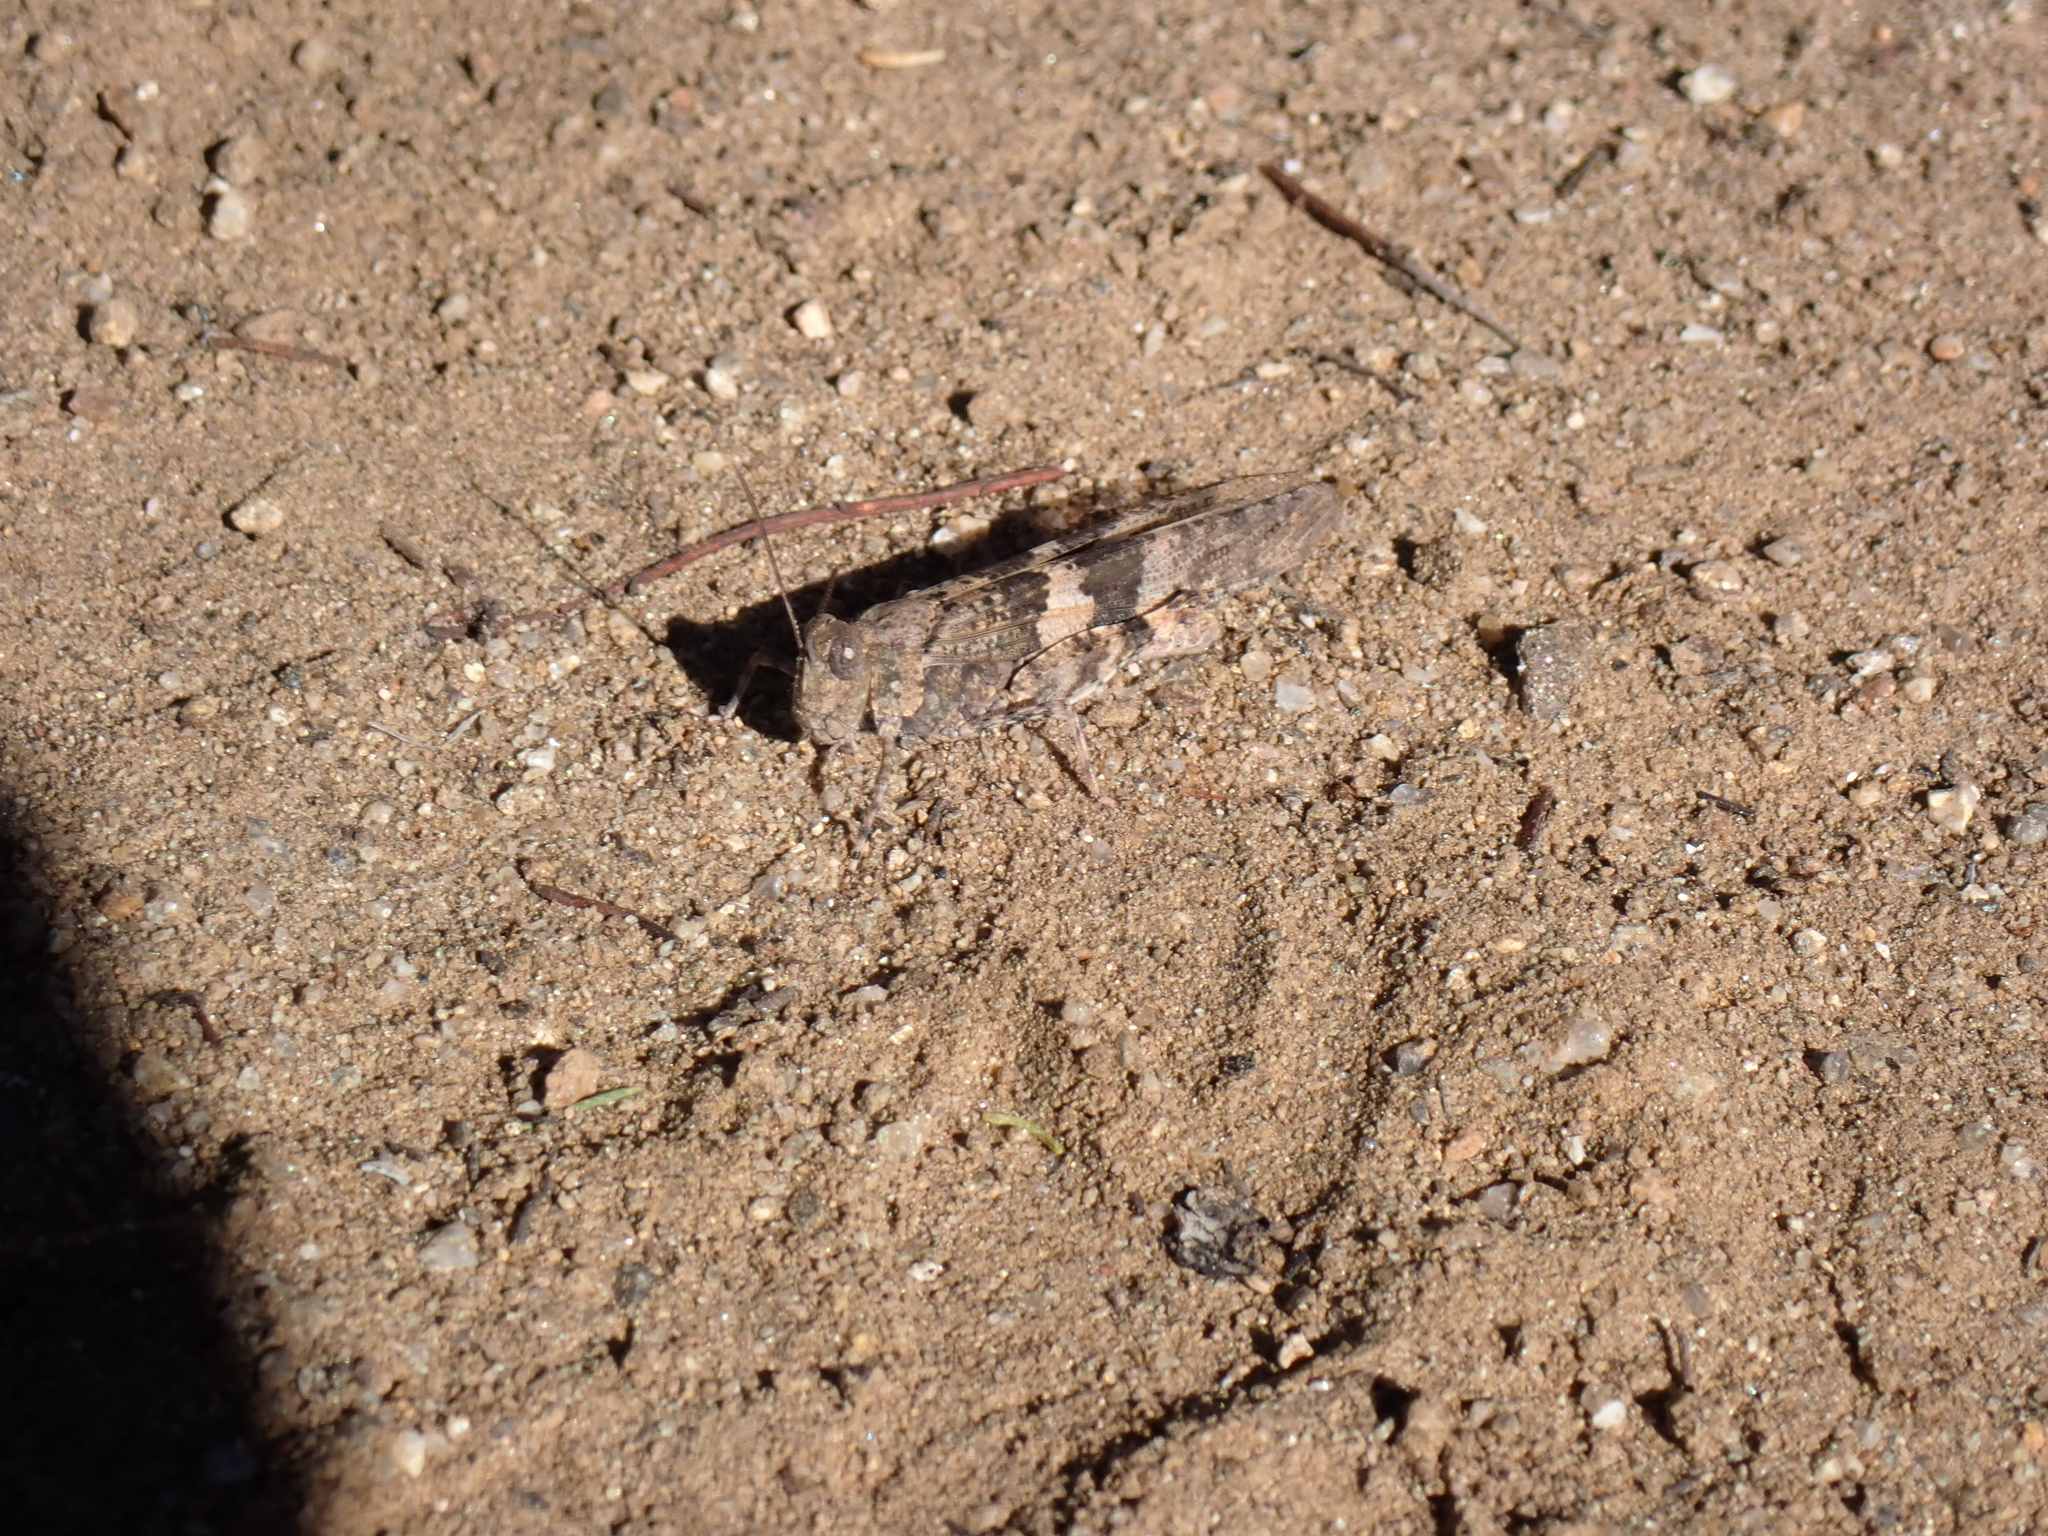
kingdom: Animalia
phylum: Arthropoda
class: Insecta
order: Orthoptera
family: Acrididae
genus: Trimerotropis
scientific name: Trimerotropis pallidipennis
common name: Pallid-winged grasshopper
